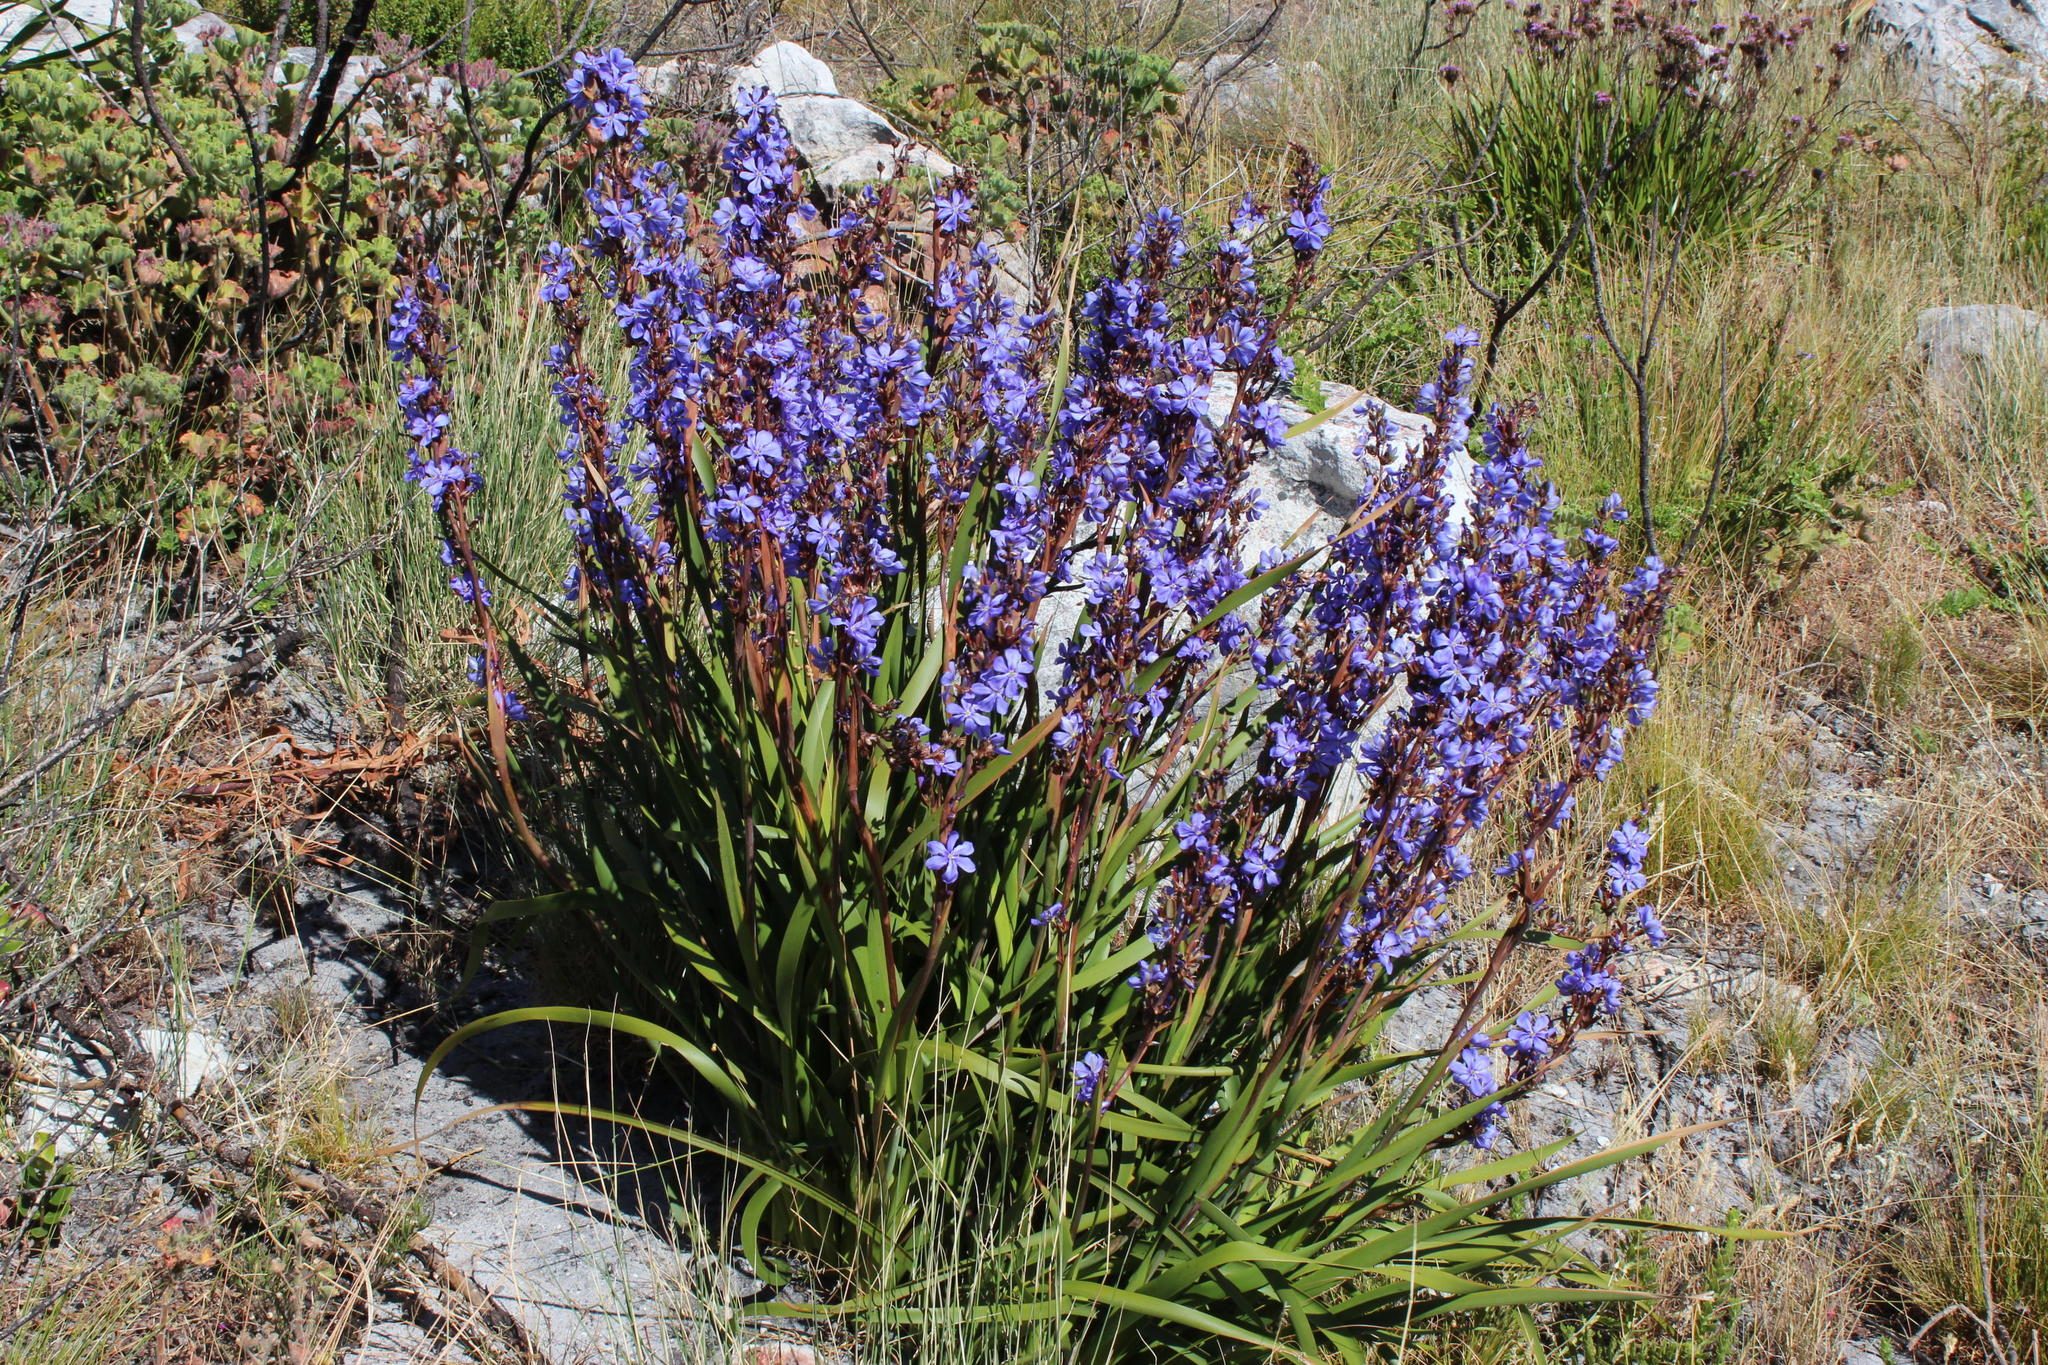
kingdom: Plantae
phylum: Tracheophyta
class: Liliopsida
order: Asparagales
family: Iridaceae
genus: Aristea
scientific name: Aristea capitata
